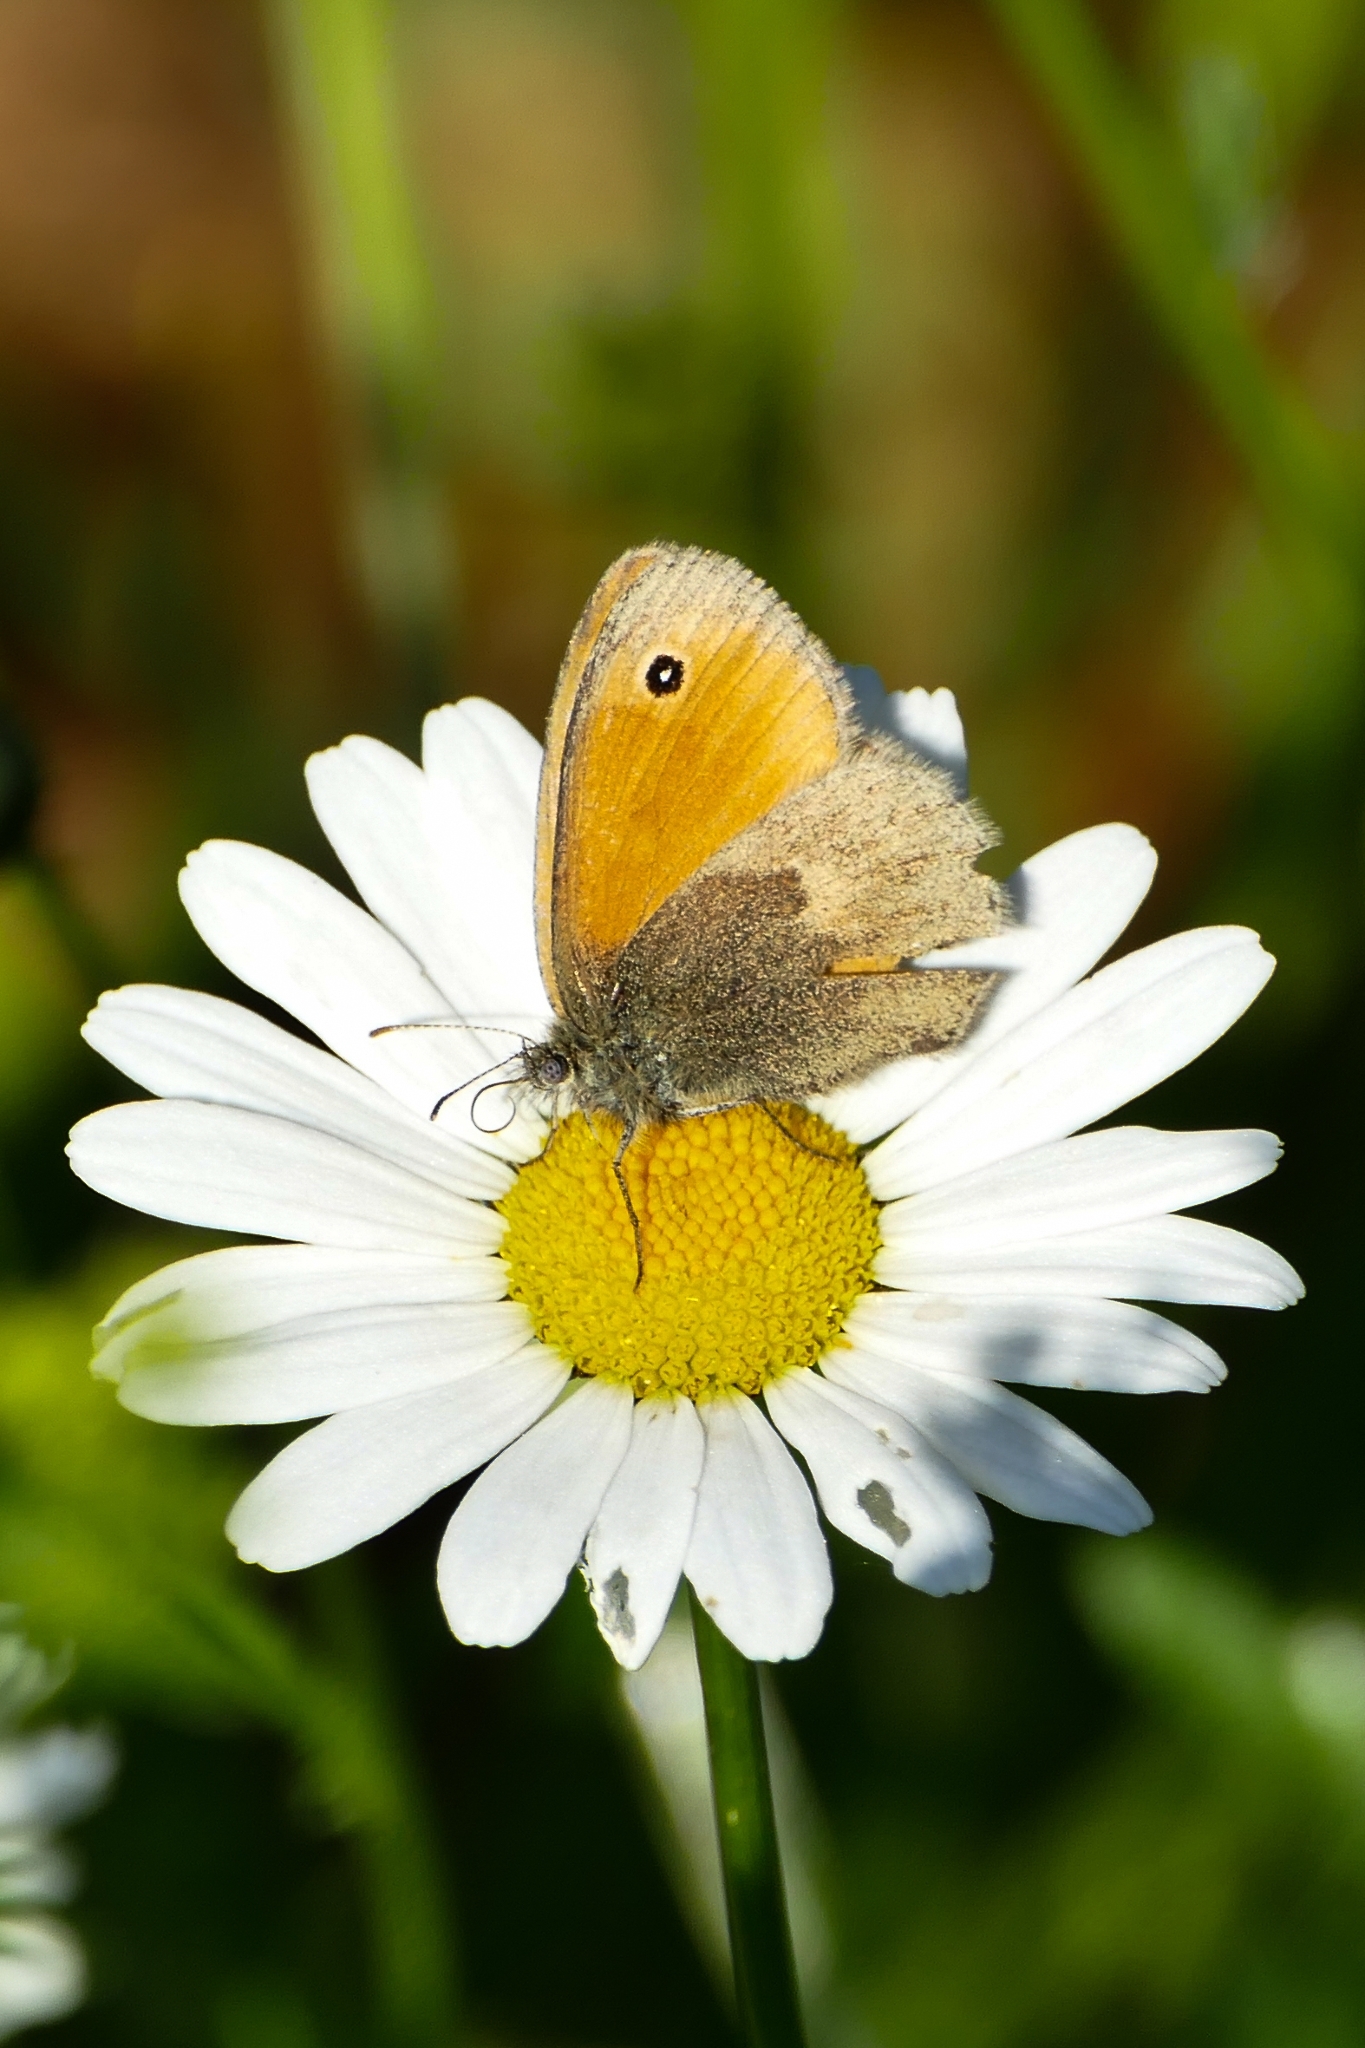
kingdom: Animalia
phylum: Arthropoda
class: Insecta
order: Lepidoptera
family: Nymphalidae
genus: Coenonympha
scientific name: Coenonympha pamphilus
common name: Small heath
